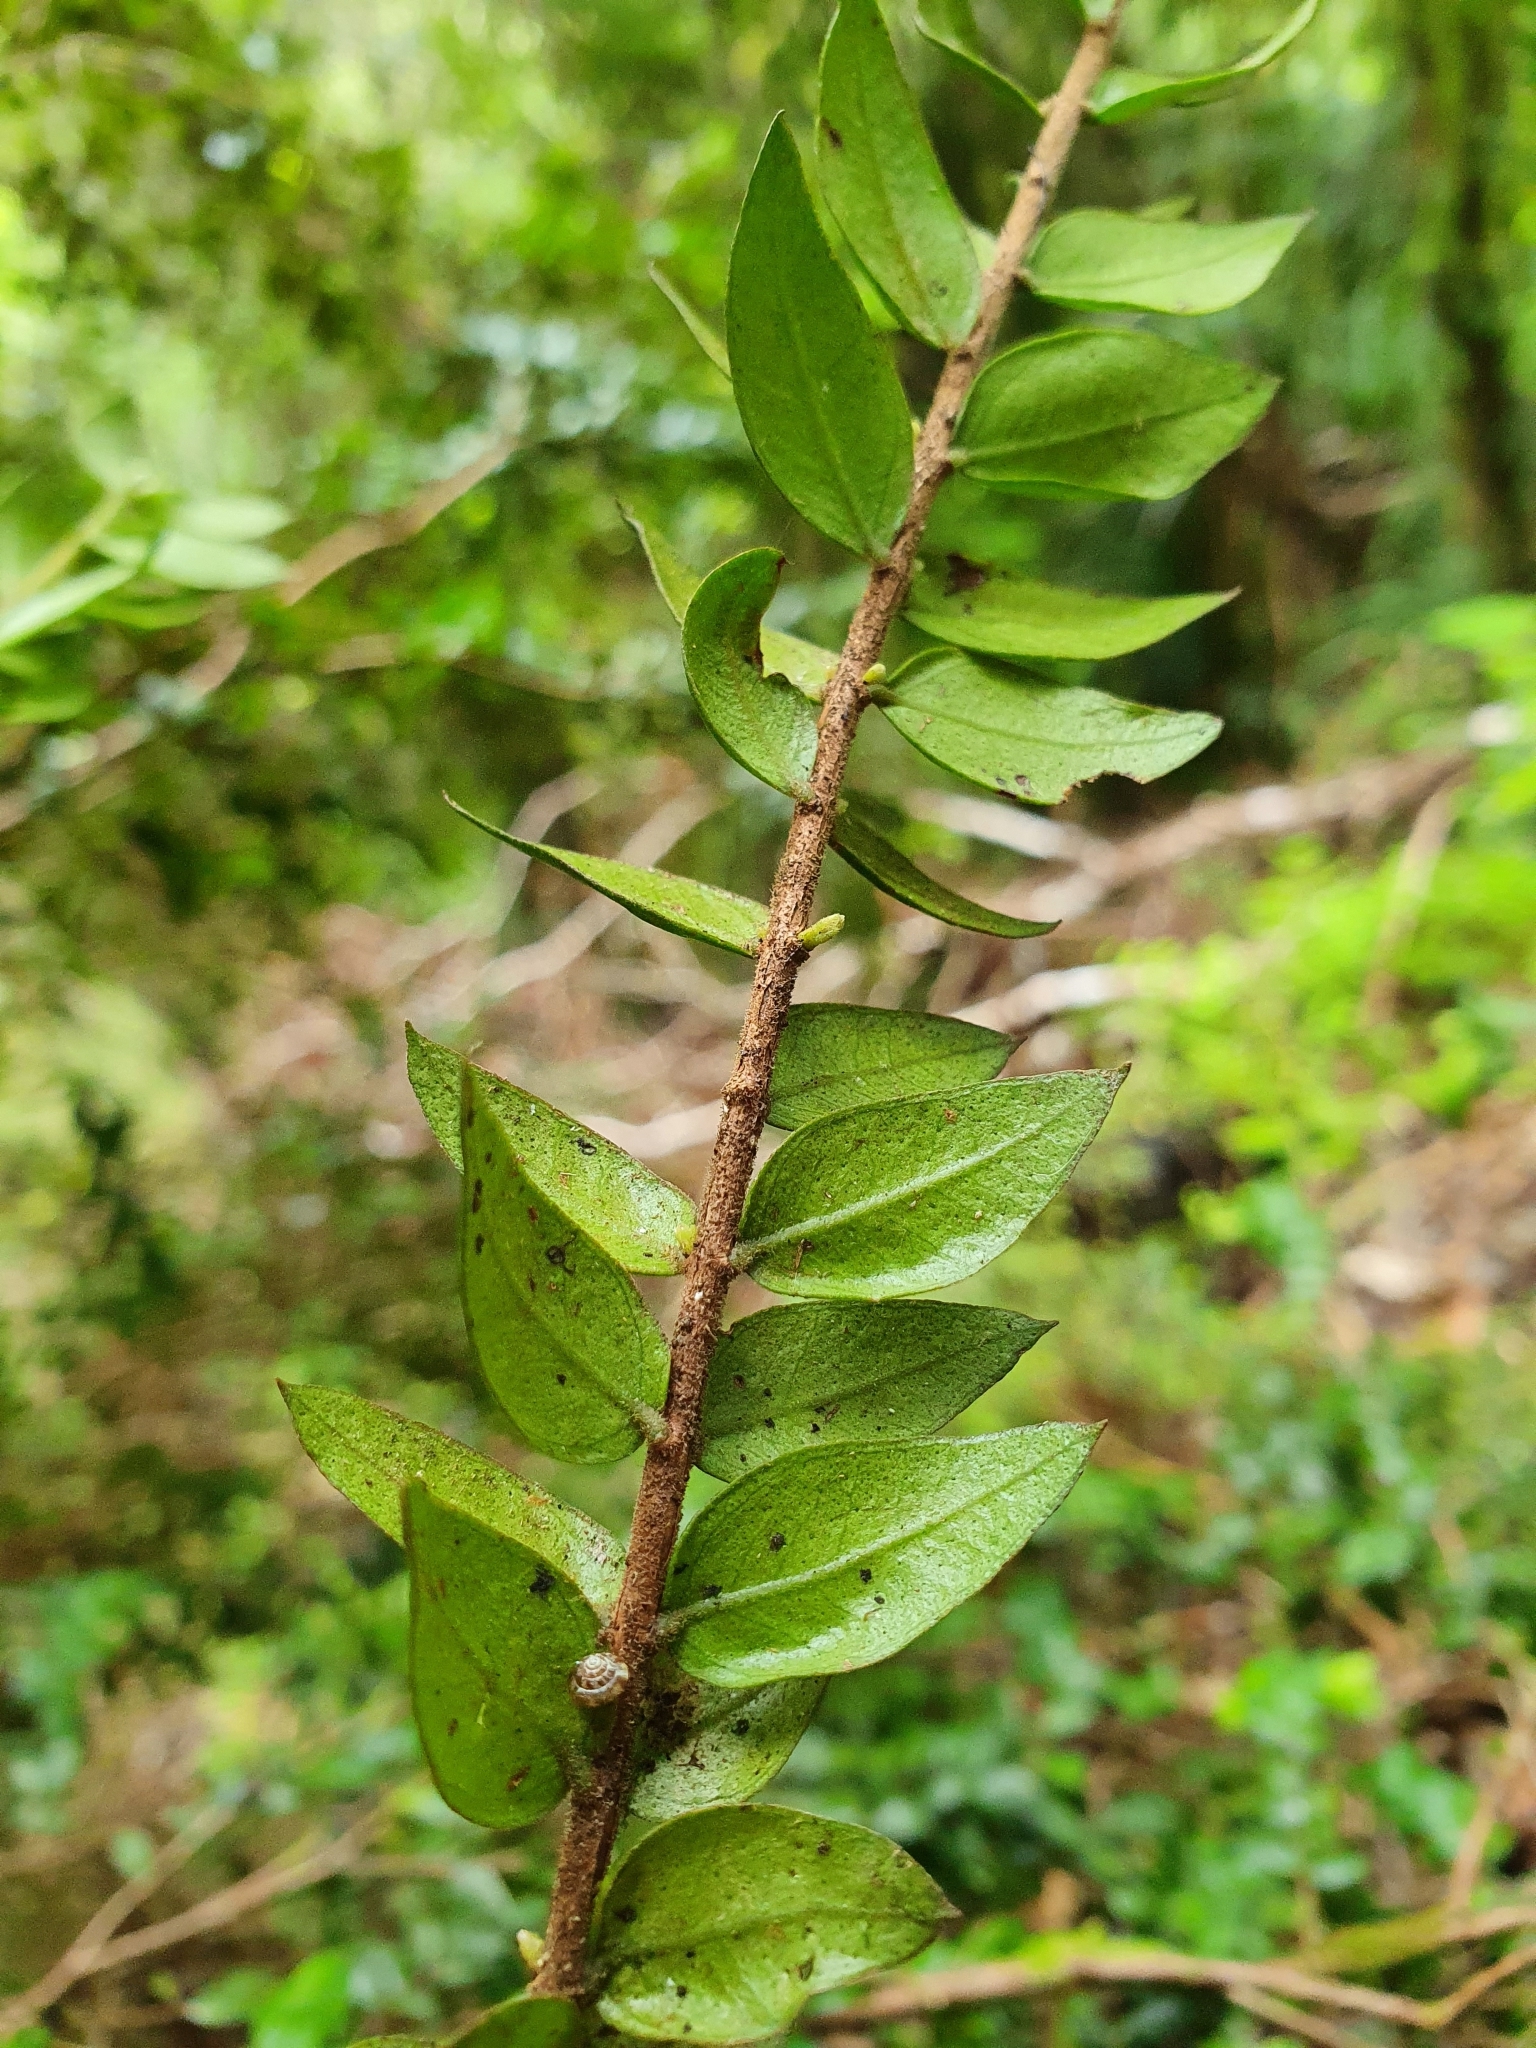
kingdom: Plantae
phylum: Tracheophyta
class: Magnoliopsida
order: Myrtales
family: Myrtaceae
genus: Metrosideros
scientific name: Metrosideros colensoi
